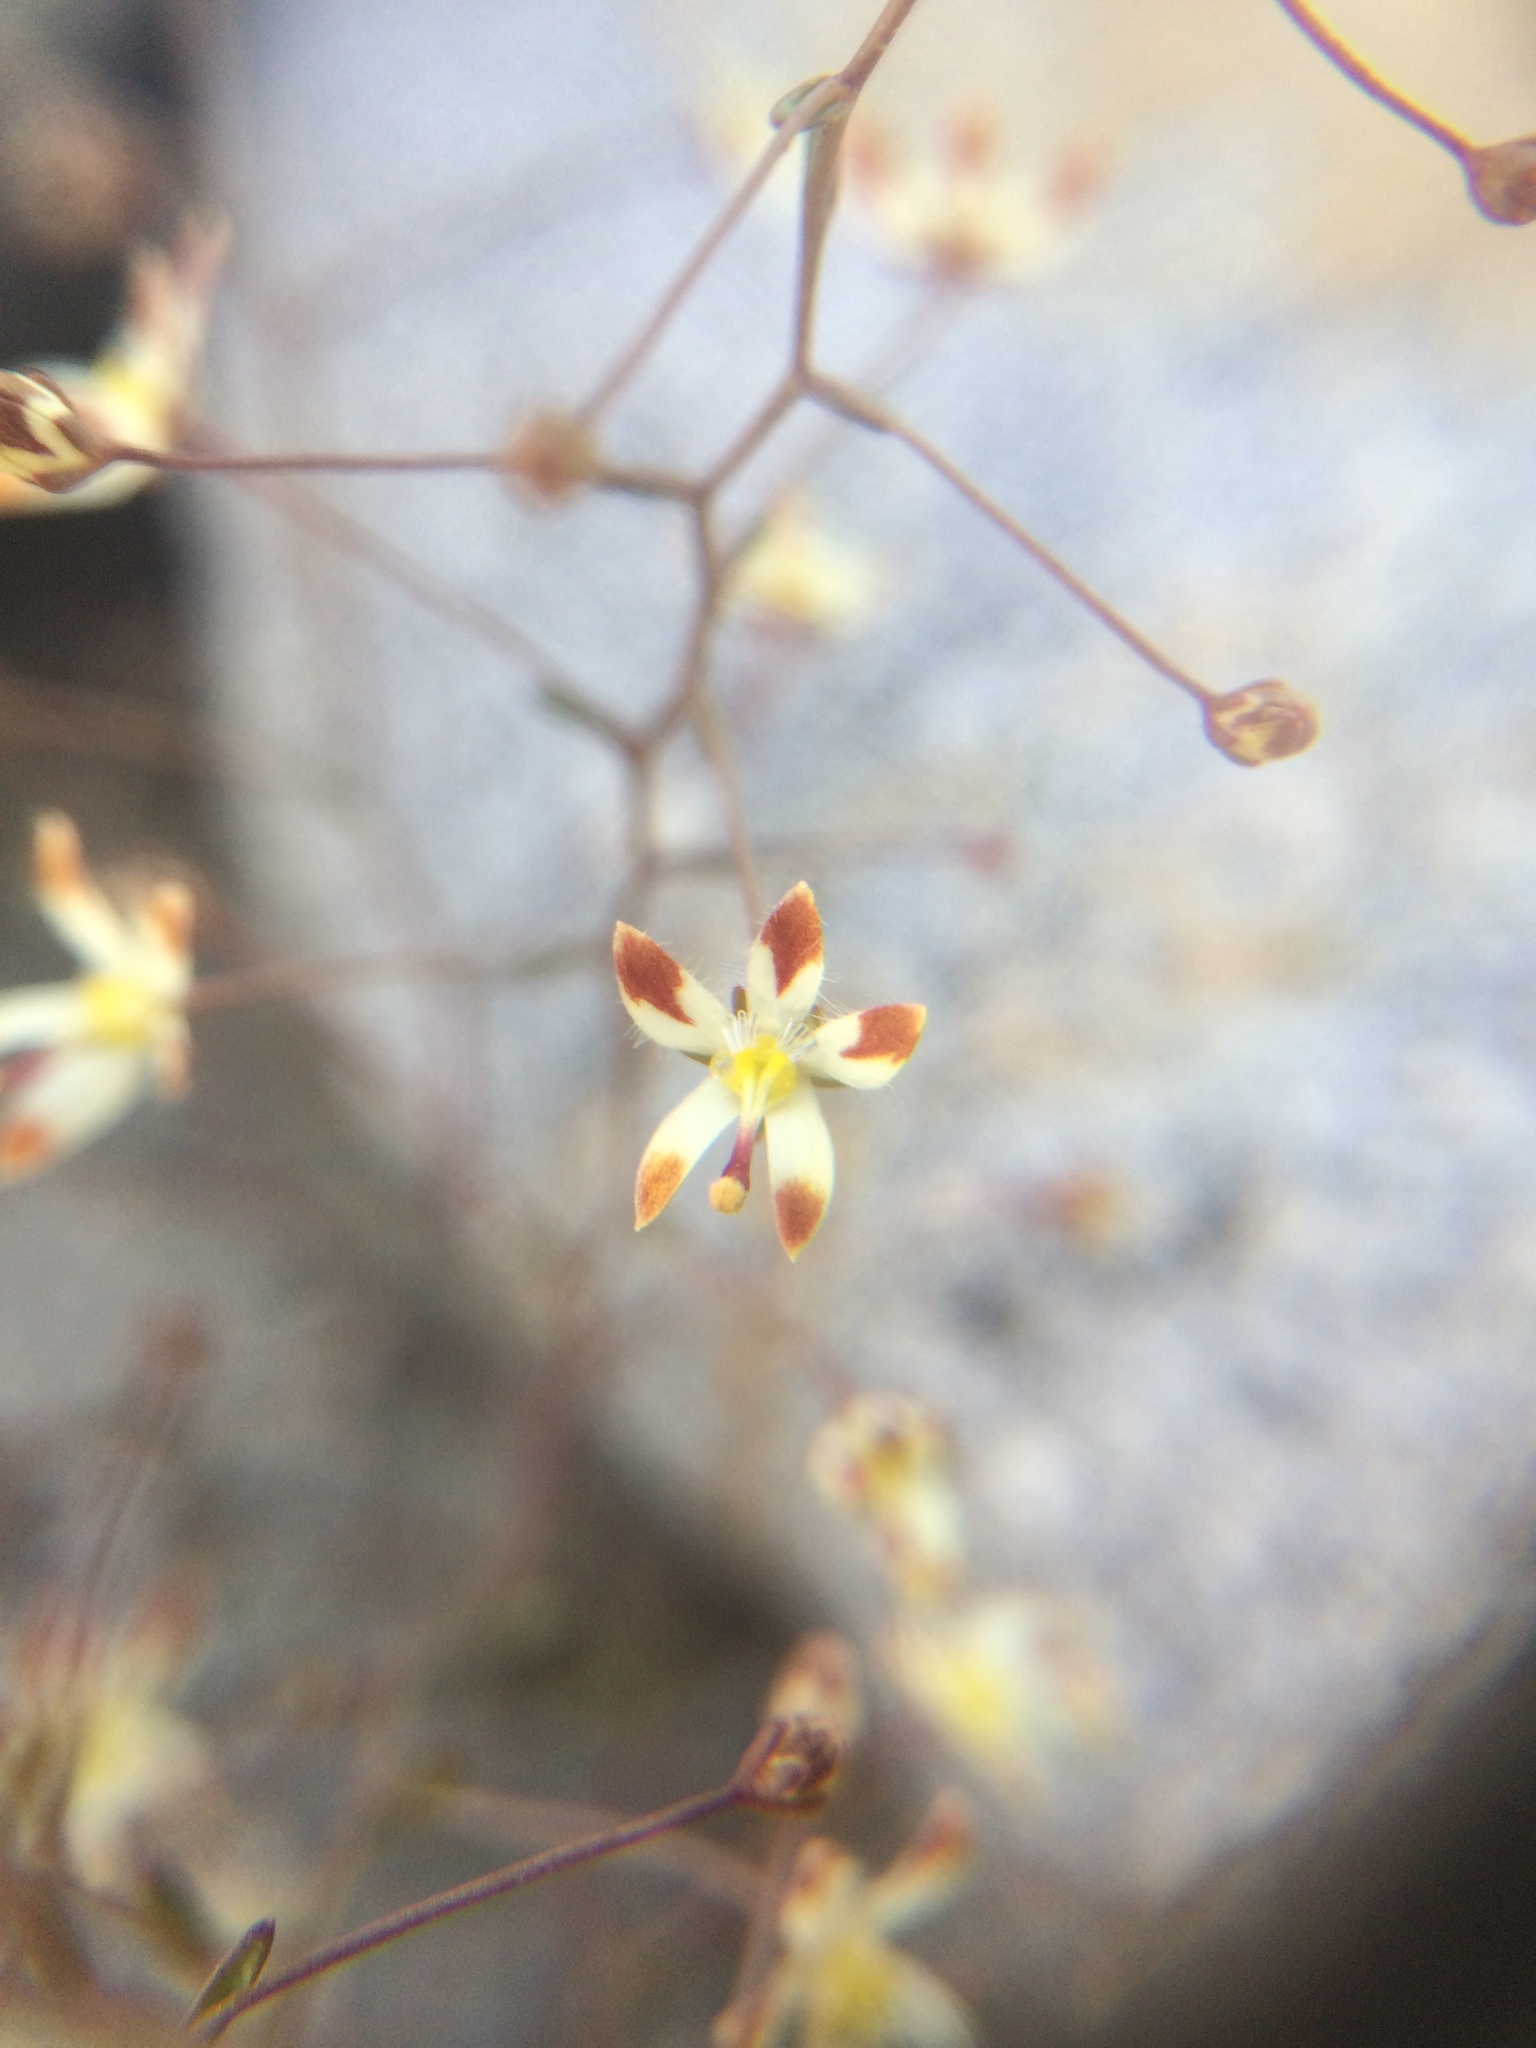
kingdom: Plantae
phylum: Tracheophyta
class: Magnoliopsida
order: Asterales
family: Campanulaceae
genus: Nemacladus
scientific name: Nemacladus rubescens
